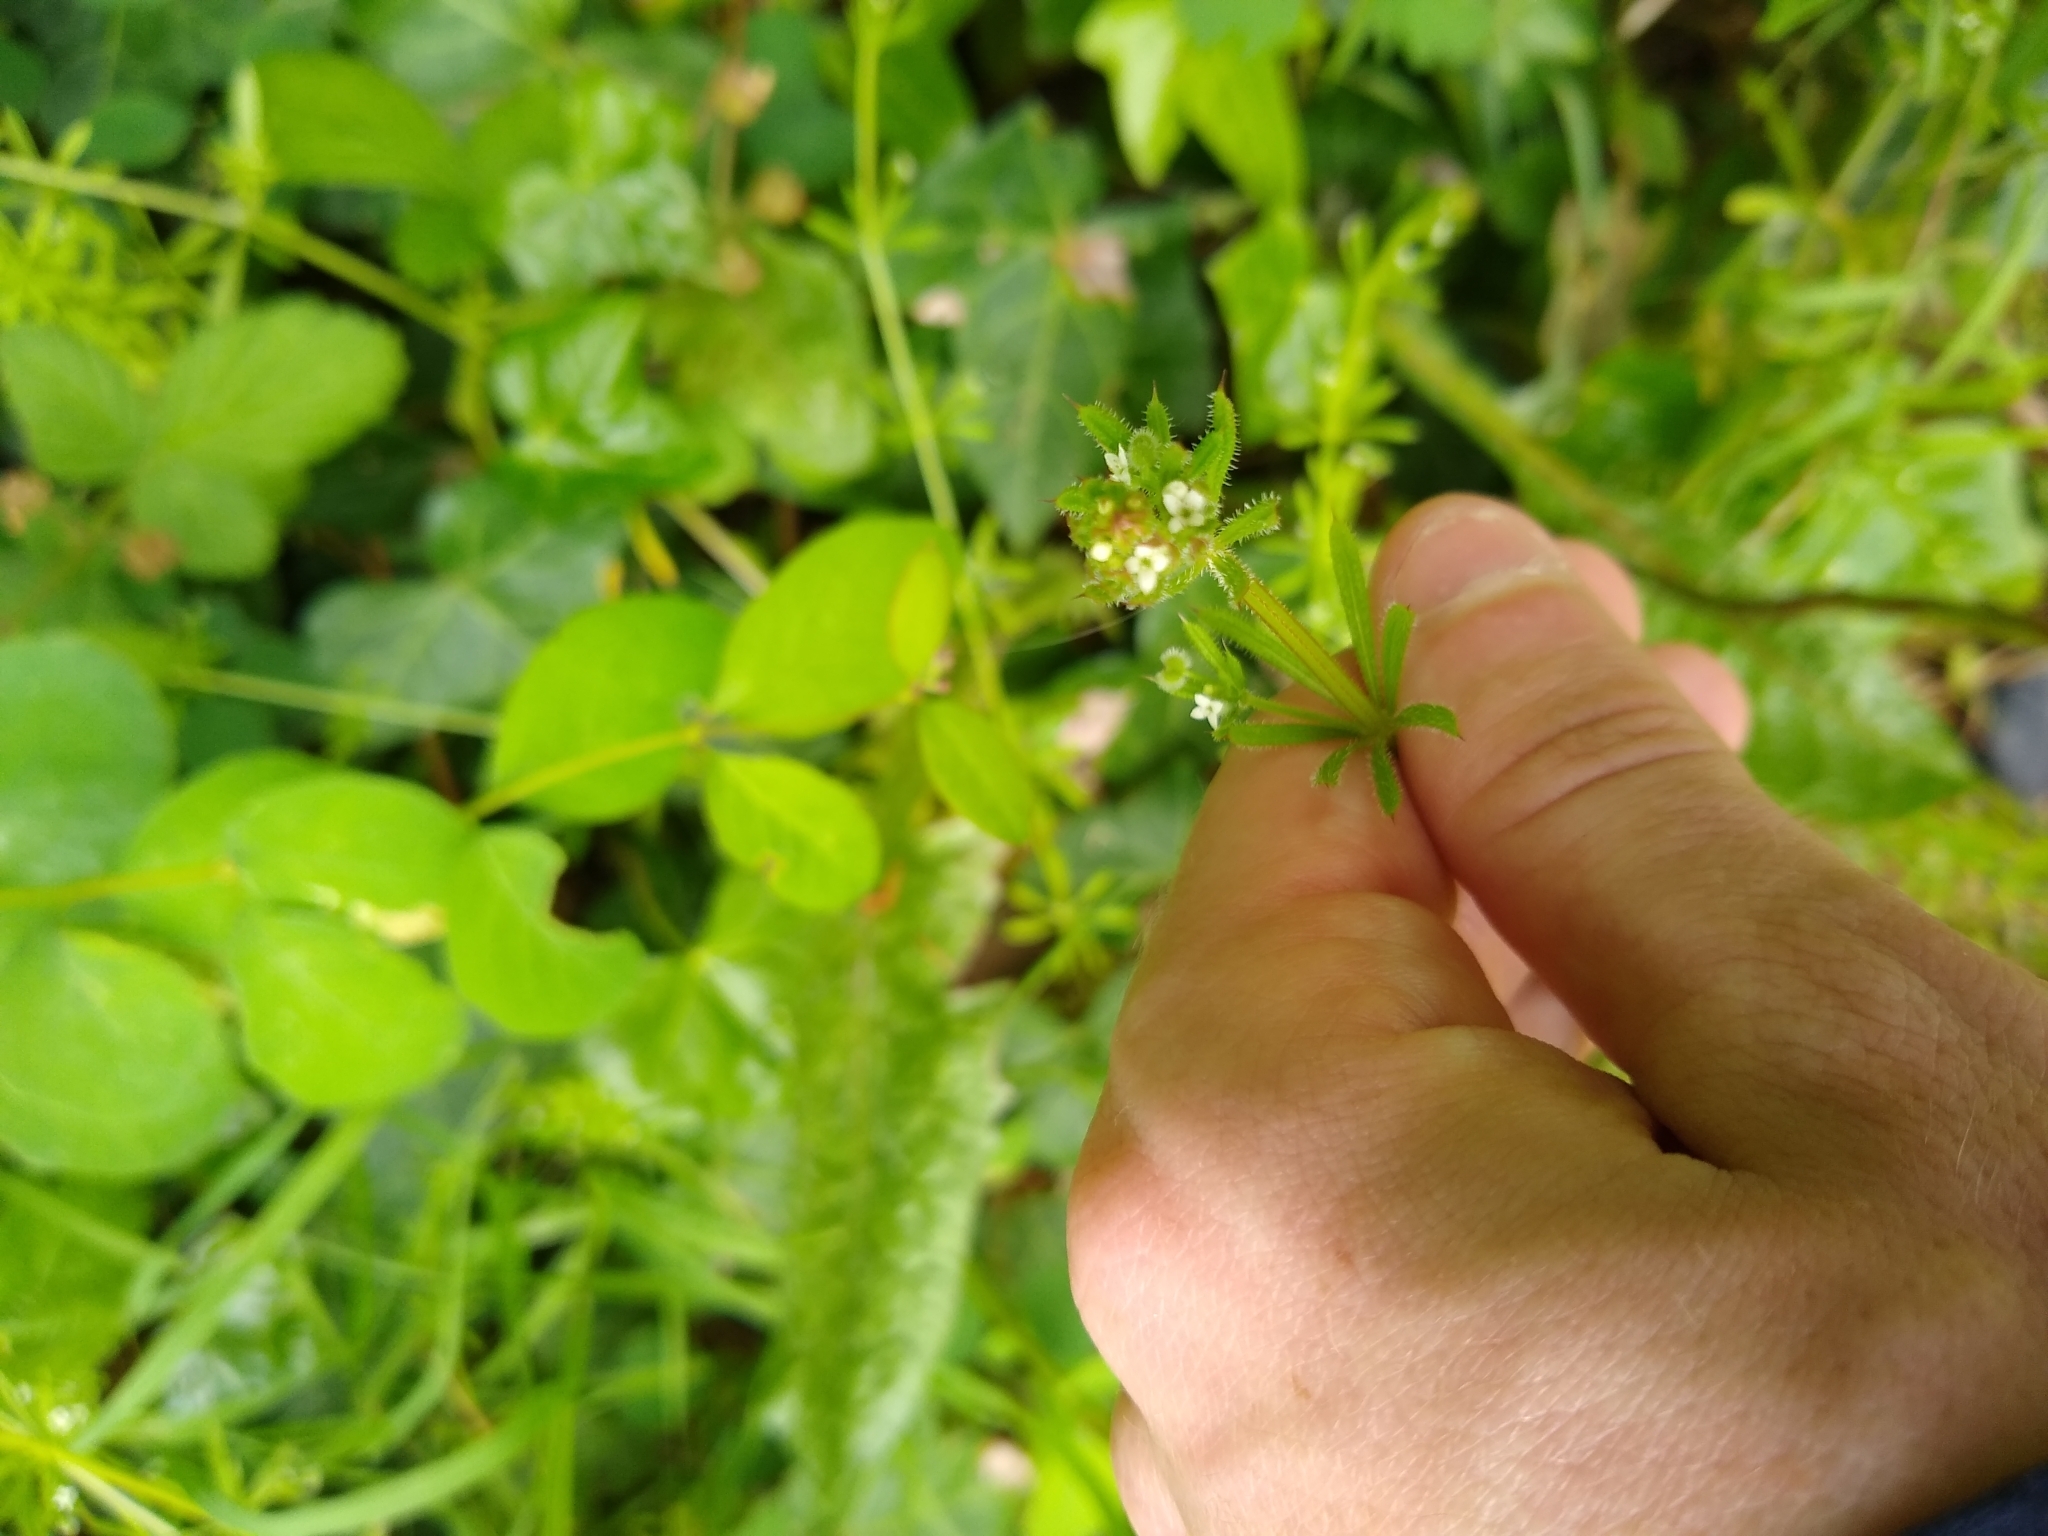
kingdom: Plantae
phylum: Tracheophyta
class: Magnoliopsida
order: Gentianales
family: Rubiaceae
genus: Galium
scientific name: Galium aparine
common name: Cleavers
